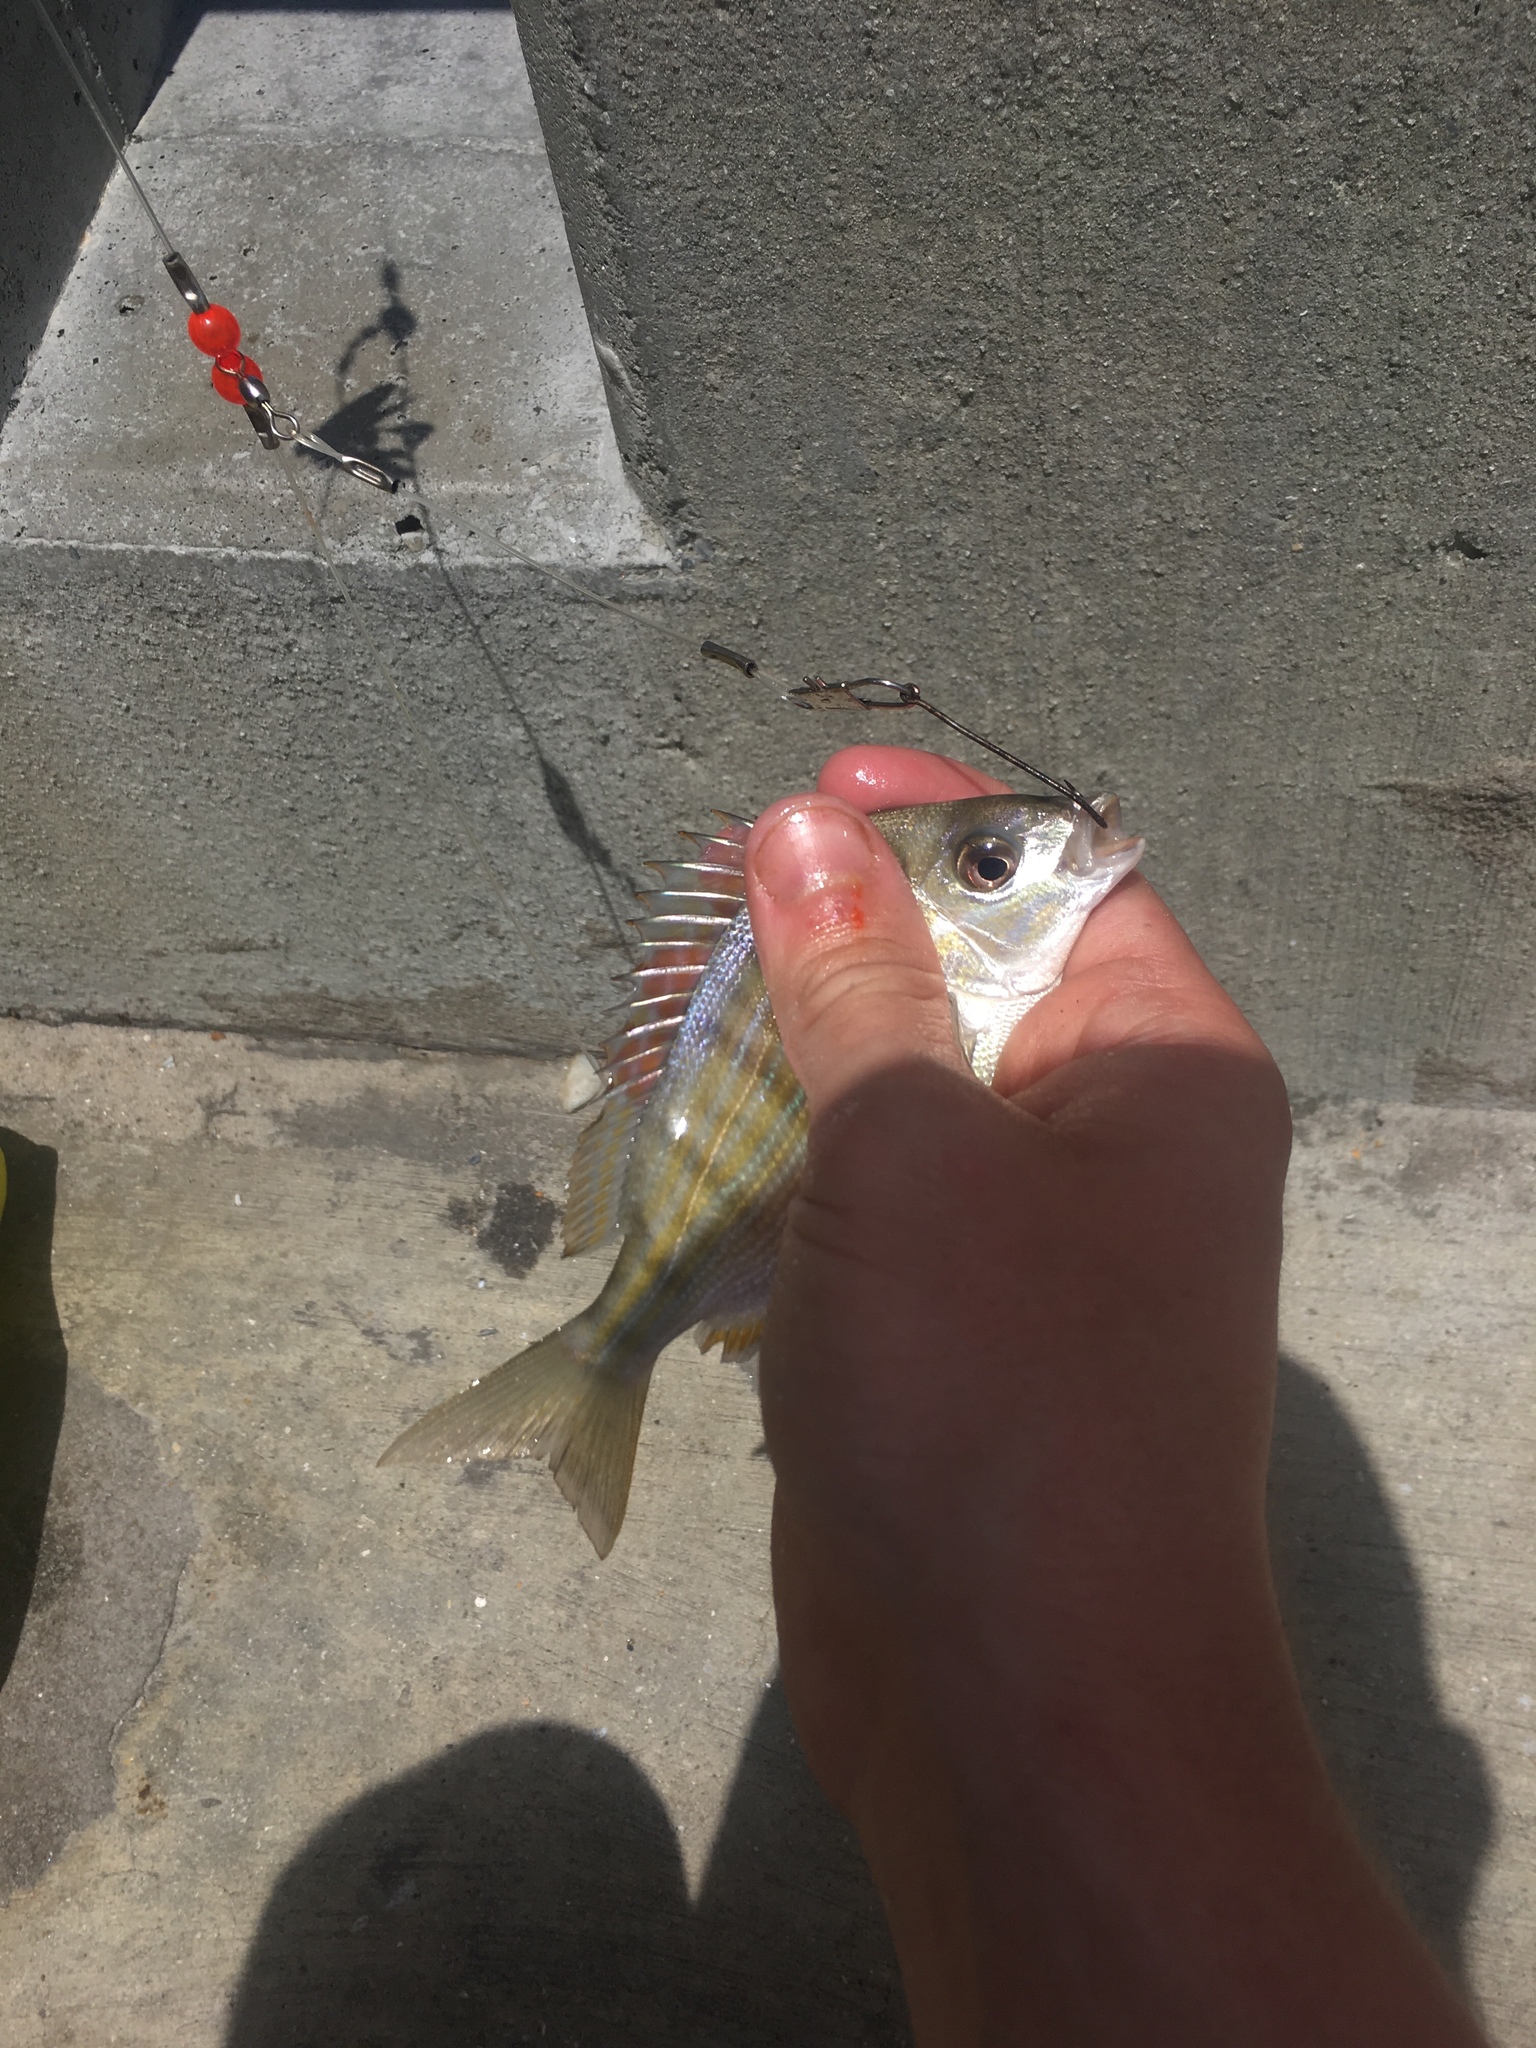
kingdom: Animalia
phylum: Chordata
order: Perciformes
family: Sparidae
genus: Lagodon
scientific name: Lagodon rhomboides
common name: Pinfish
